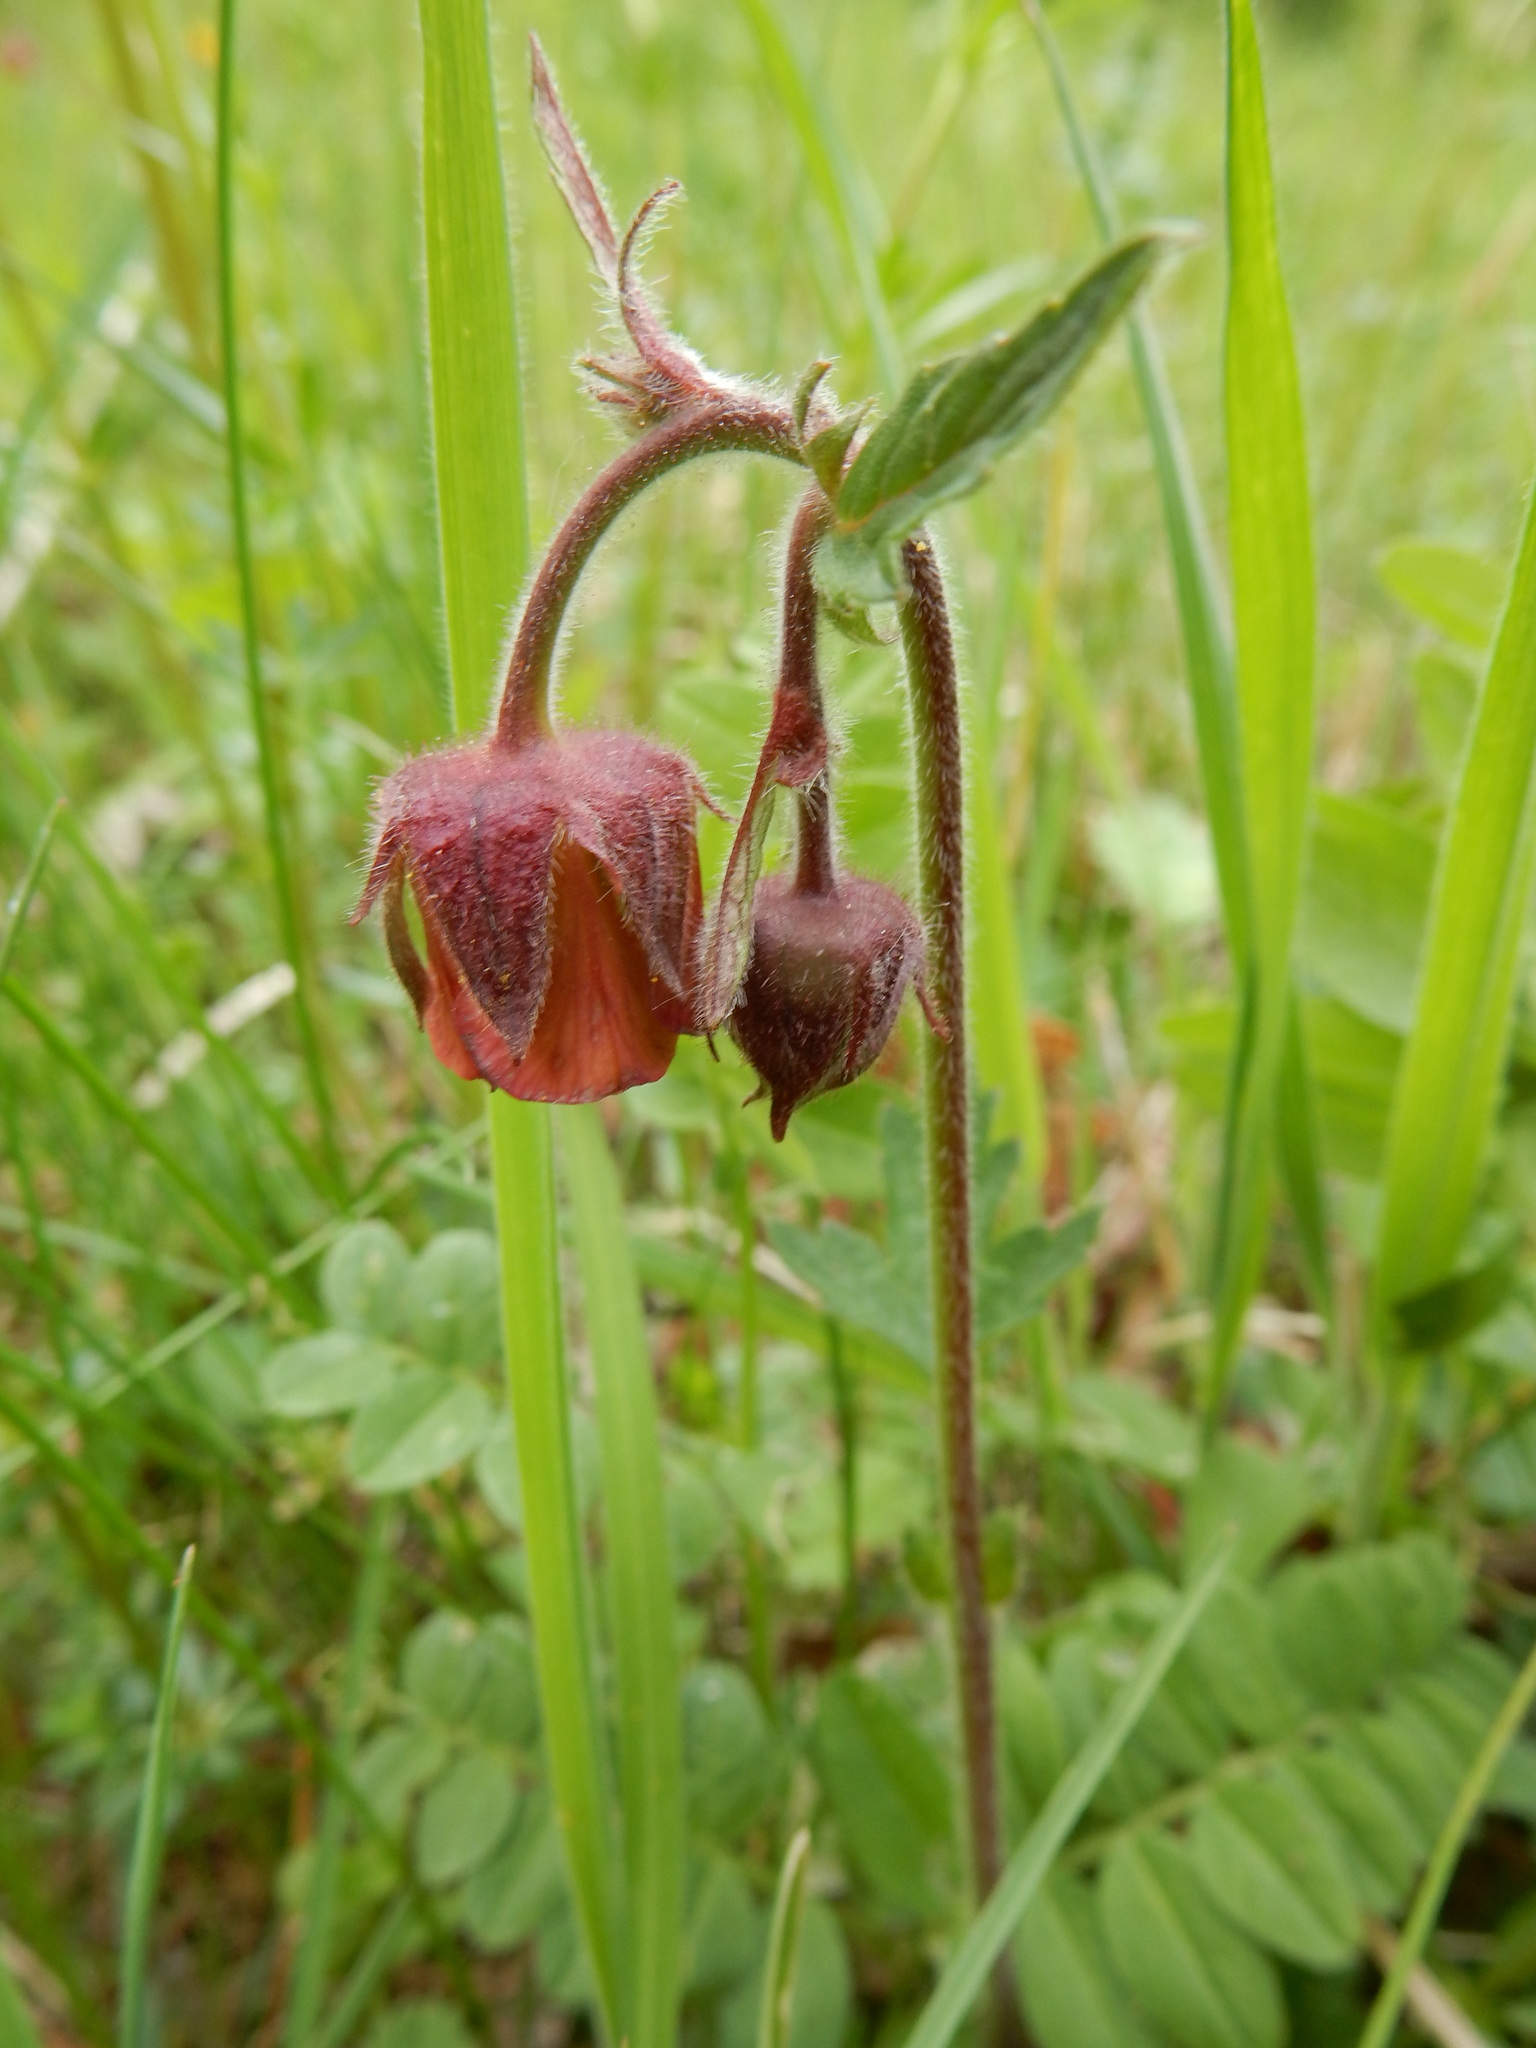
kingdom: Plantae
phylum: Tracheophyta
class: Magnoliopsida
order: Rosales
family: Rosaceae
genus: Geum
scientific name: Geum rivale
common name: Water avens
